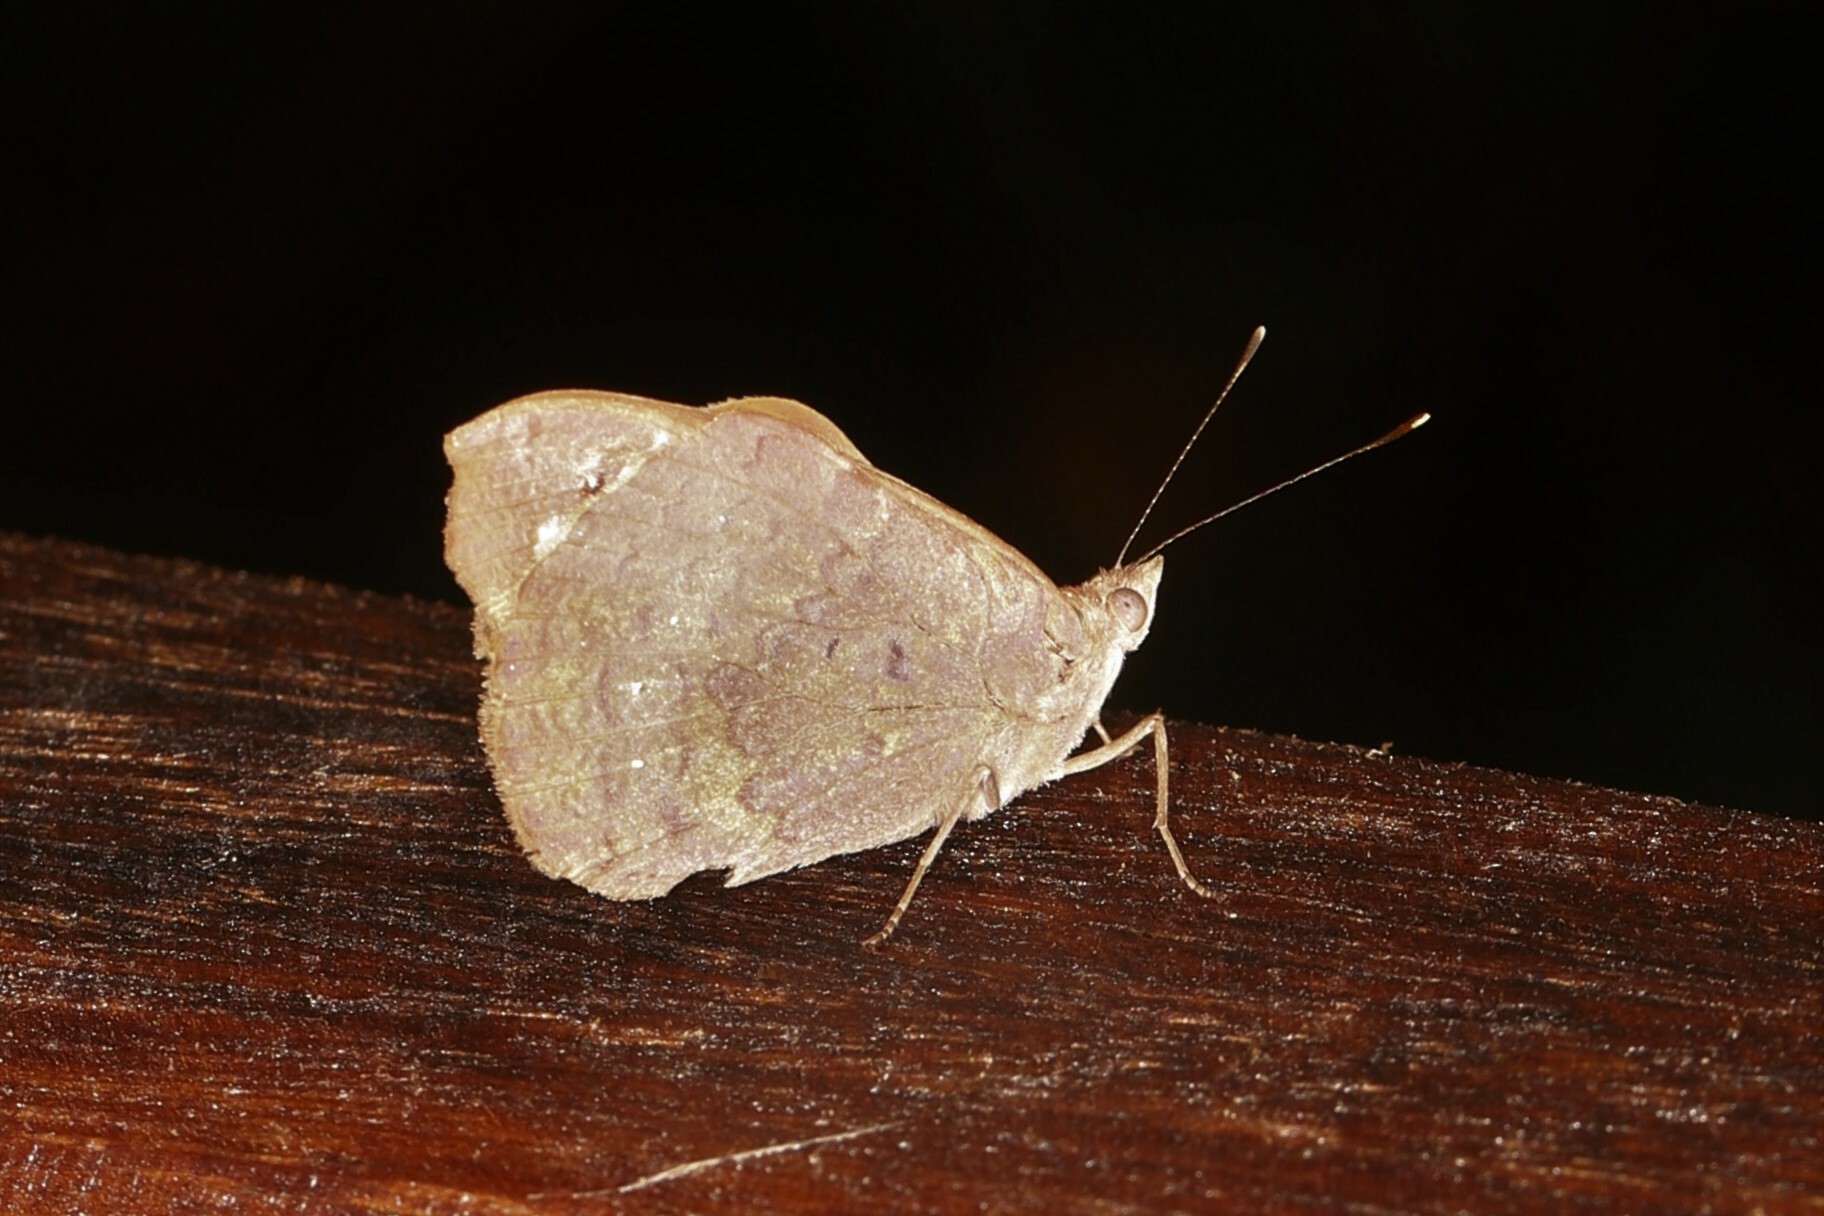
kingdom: Animalia
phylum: Arthropoda
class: Insecta
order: Lepidoptera
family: Nymphalidae
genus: Eunica
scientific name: Eunica tatila
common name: Florida purplewing
